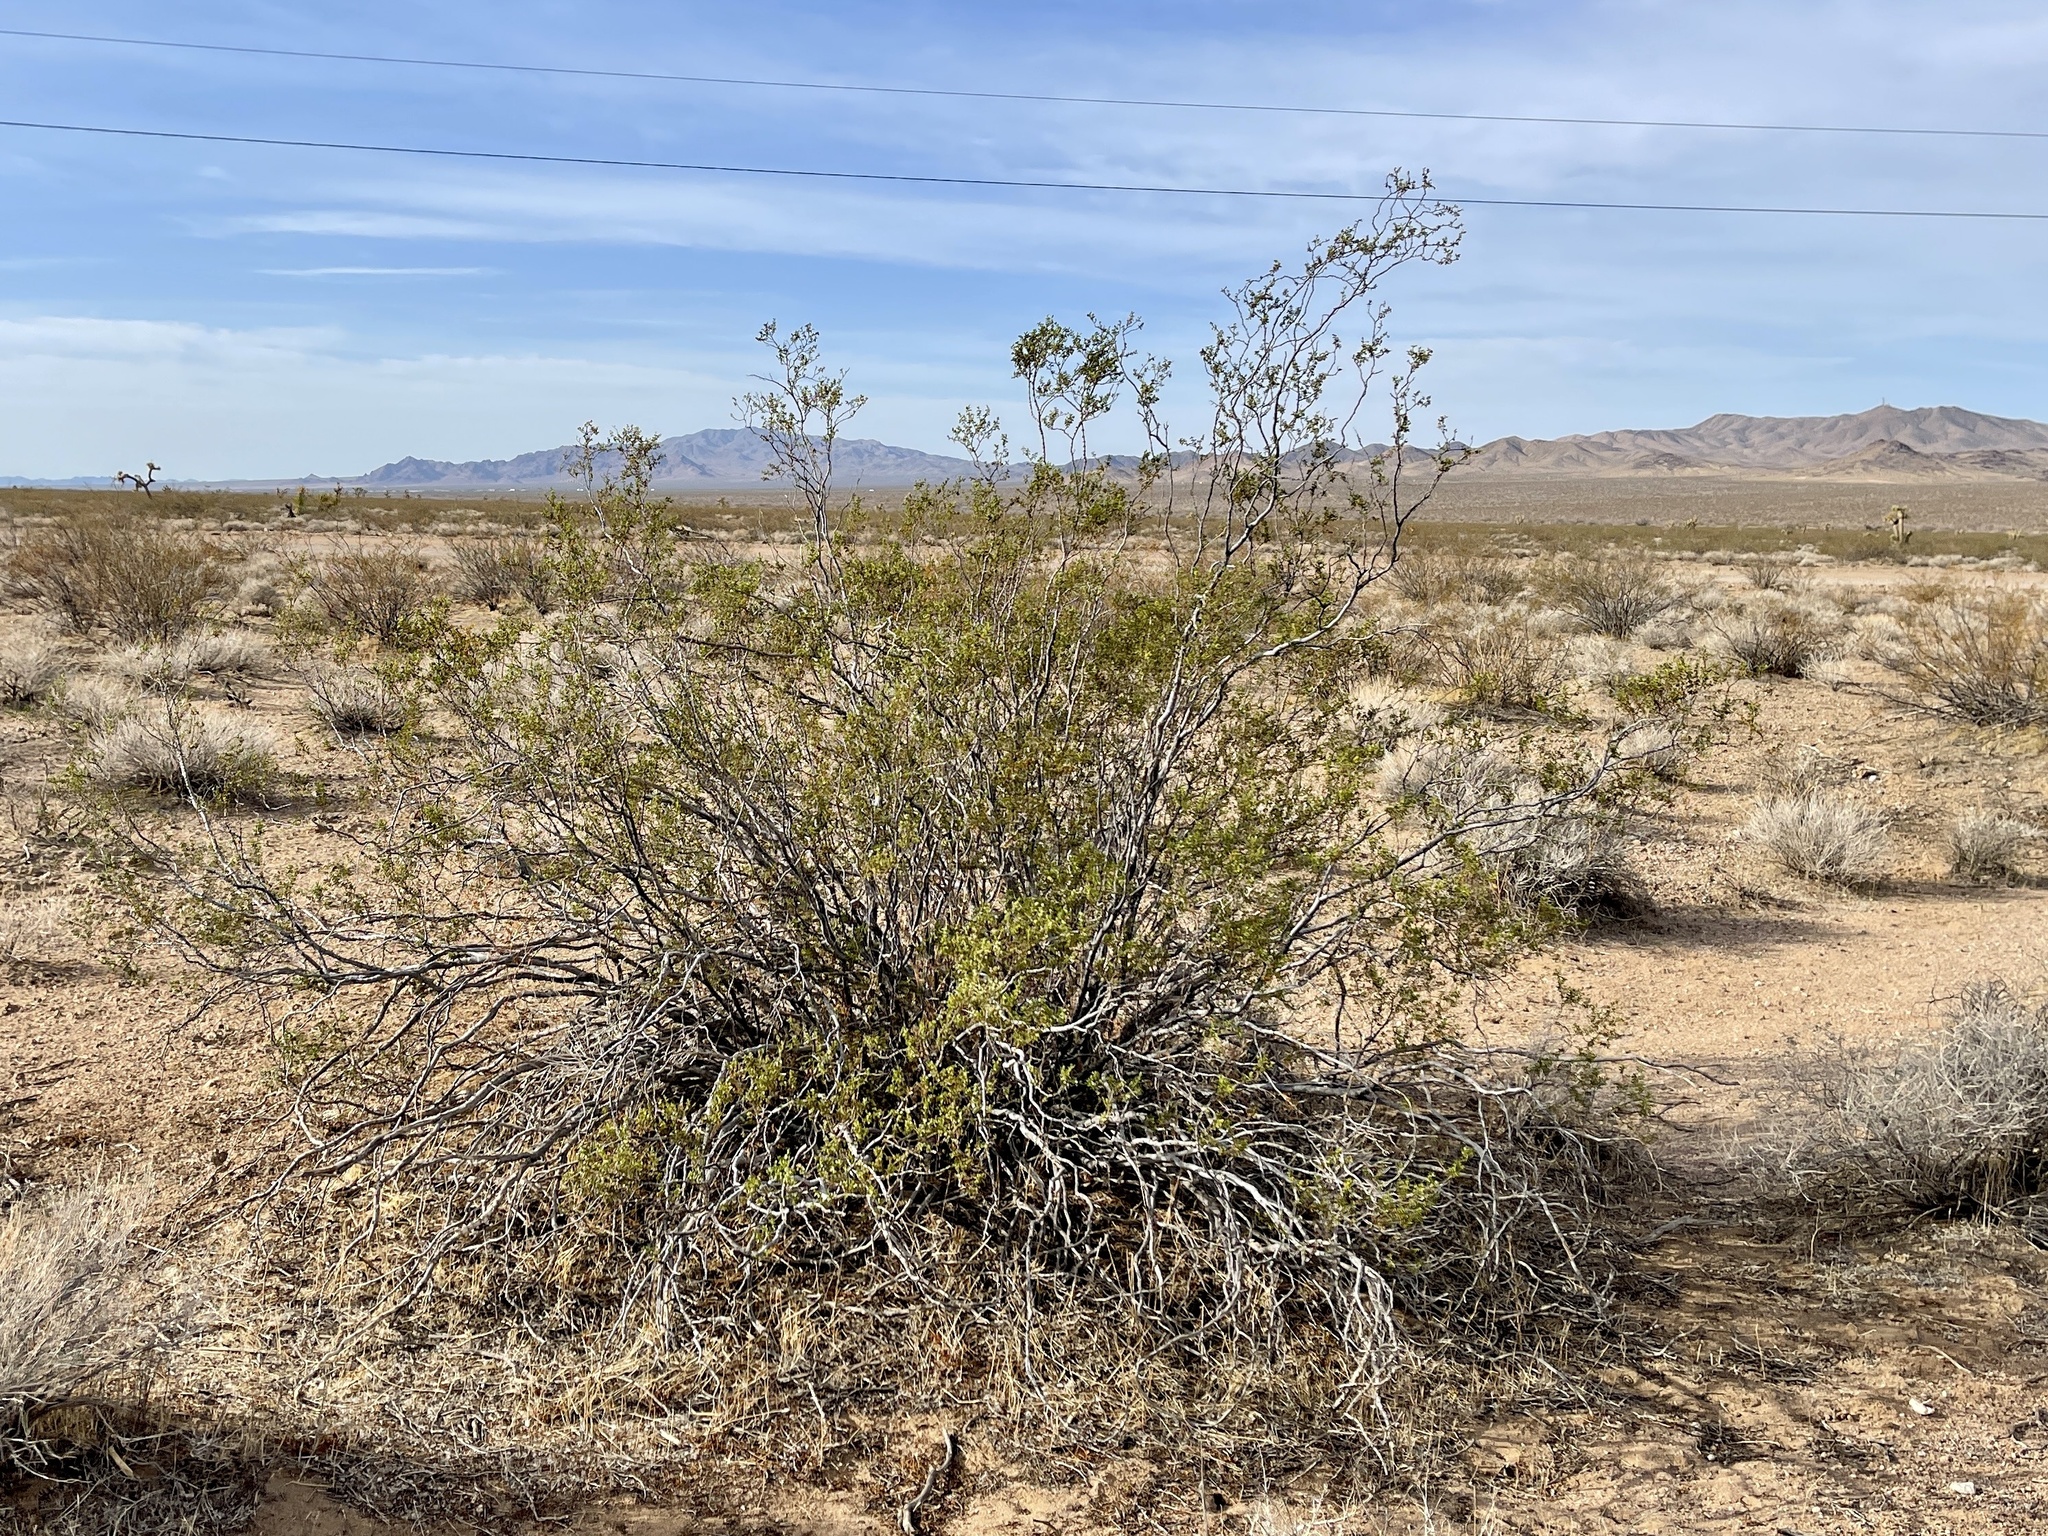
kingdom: Plantae
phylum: Tracheophyta
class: Magnoliopsida
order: Zygophyllales
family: Zygophyllaceae
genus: Larrea
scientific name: Larrea tridentata
